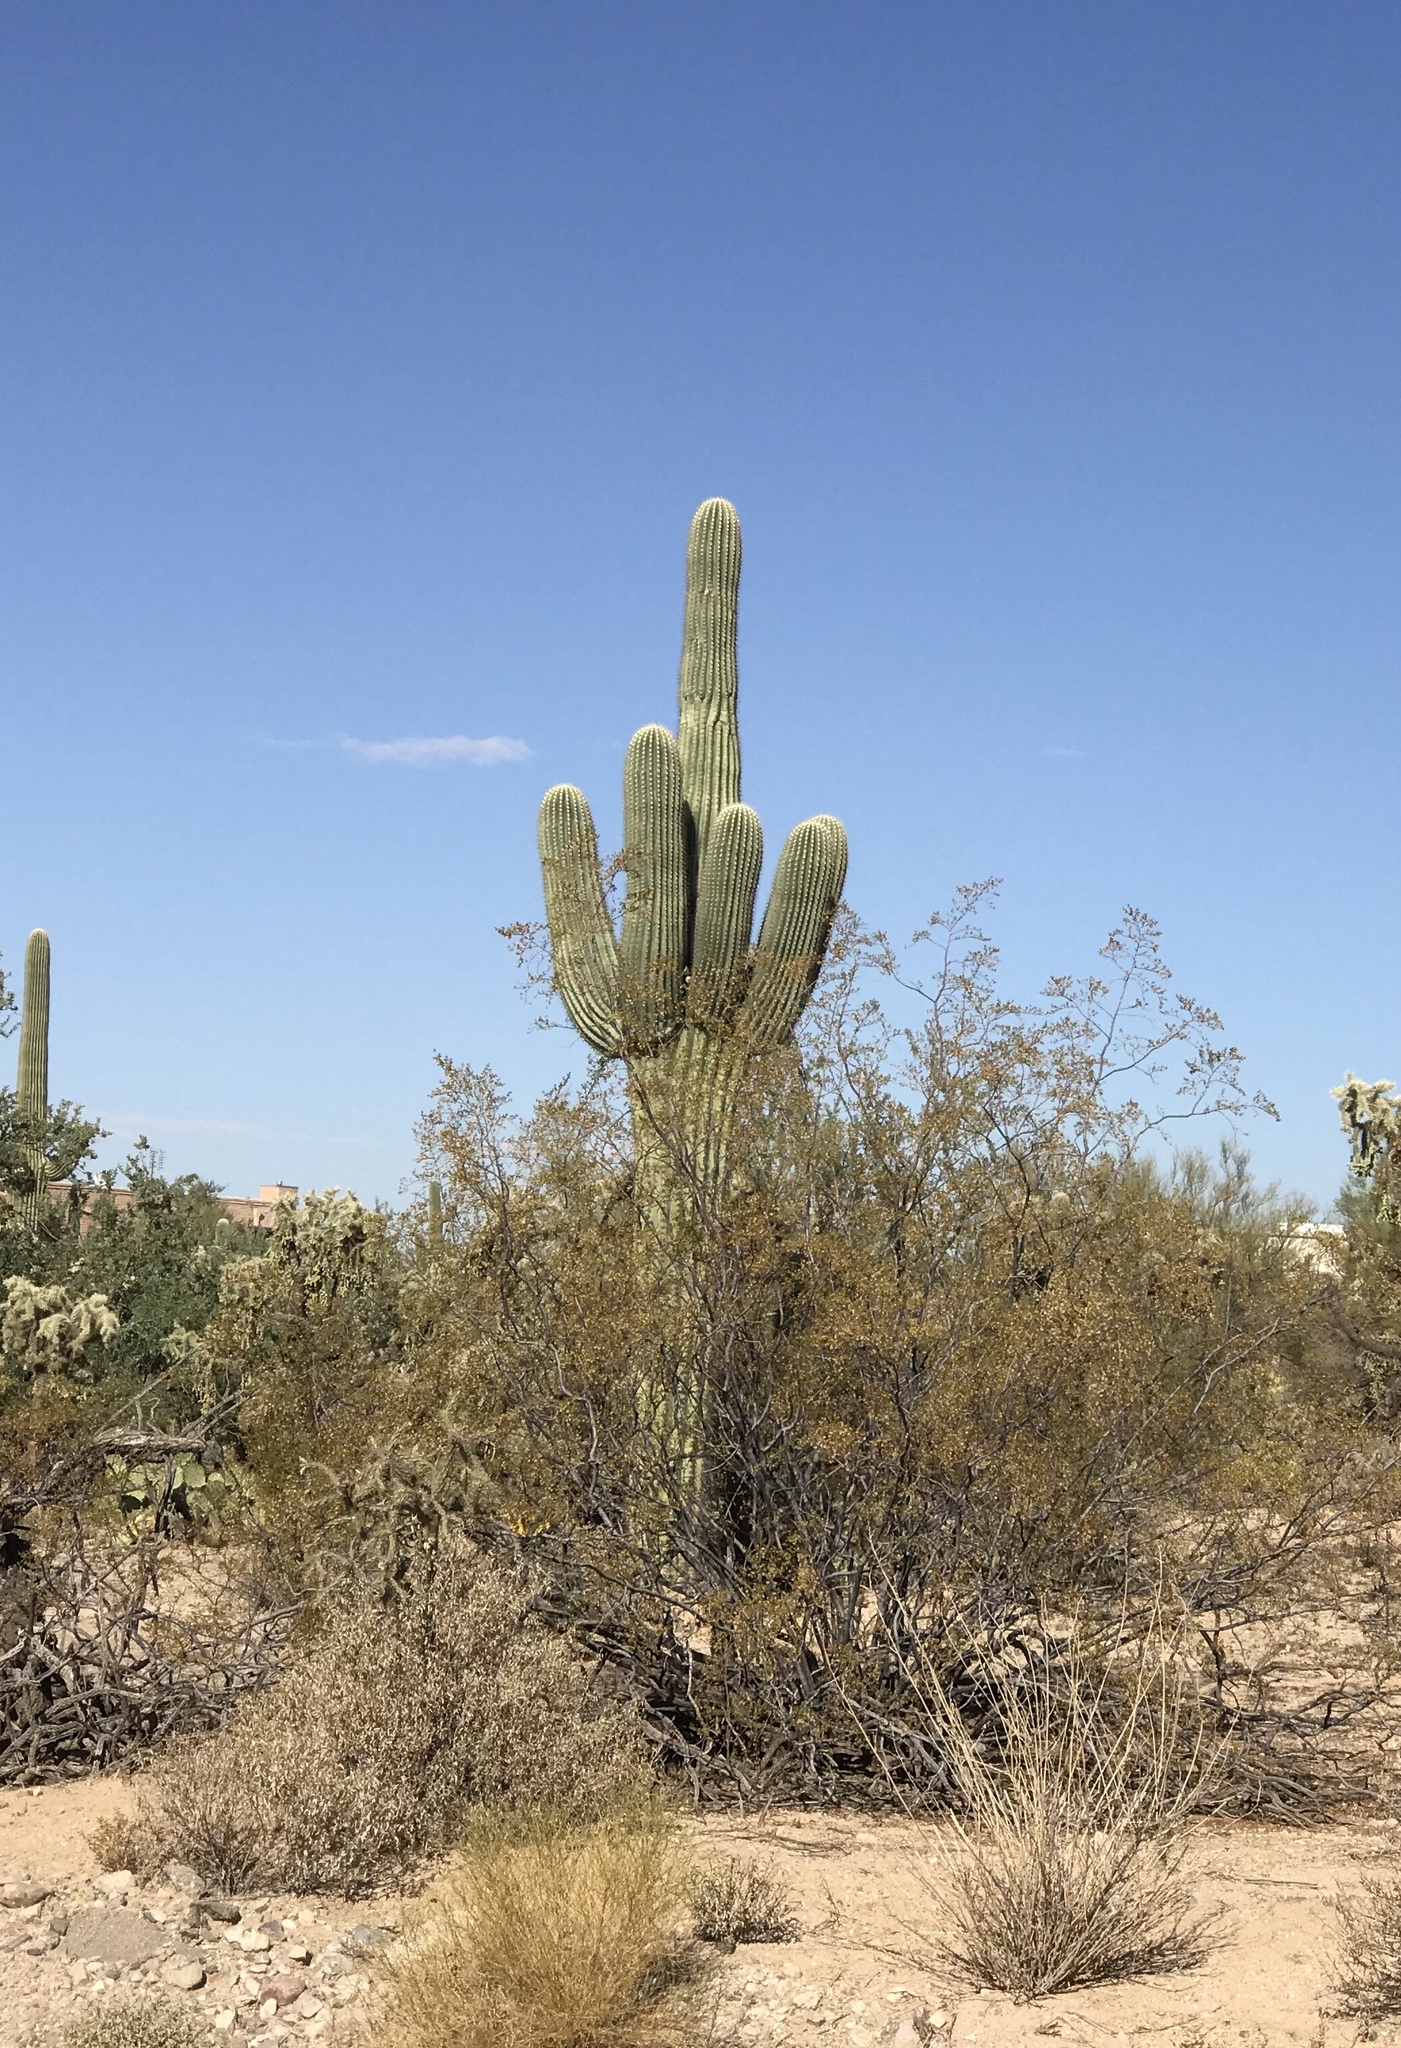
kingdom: Plantae
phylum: Tracheophyta
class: Magnoliopsida
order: Caryophyllales
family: Cactaceae
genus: Carnegiea
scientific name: Carnegiea gigantea
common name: Saguaro
